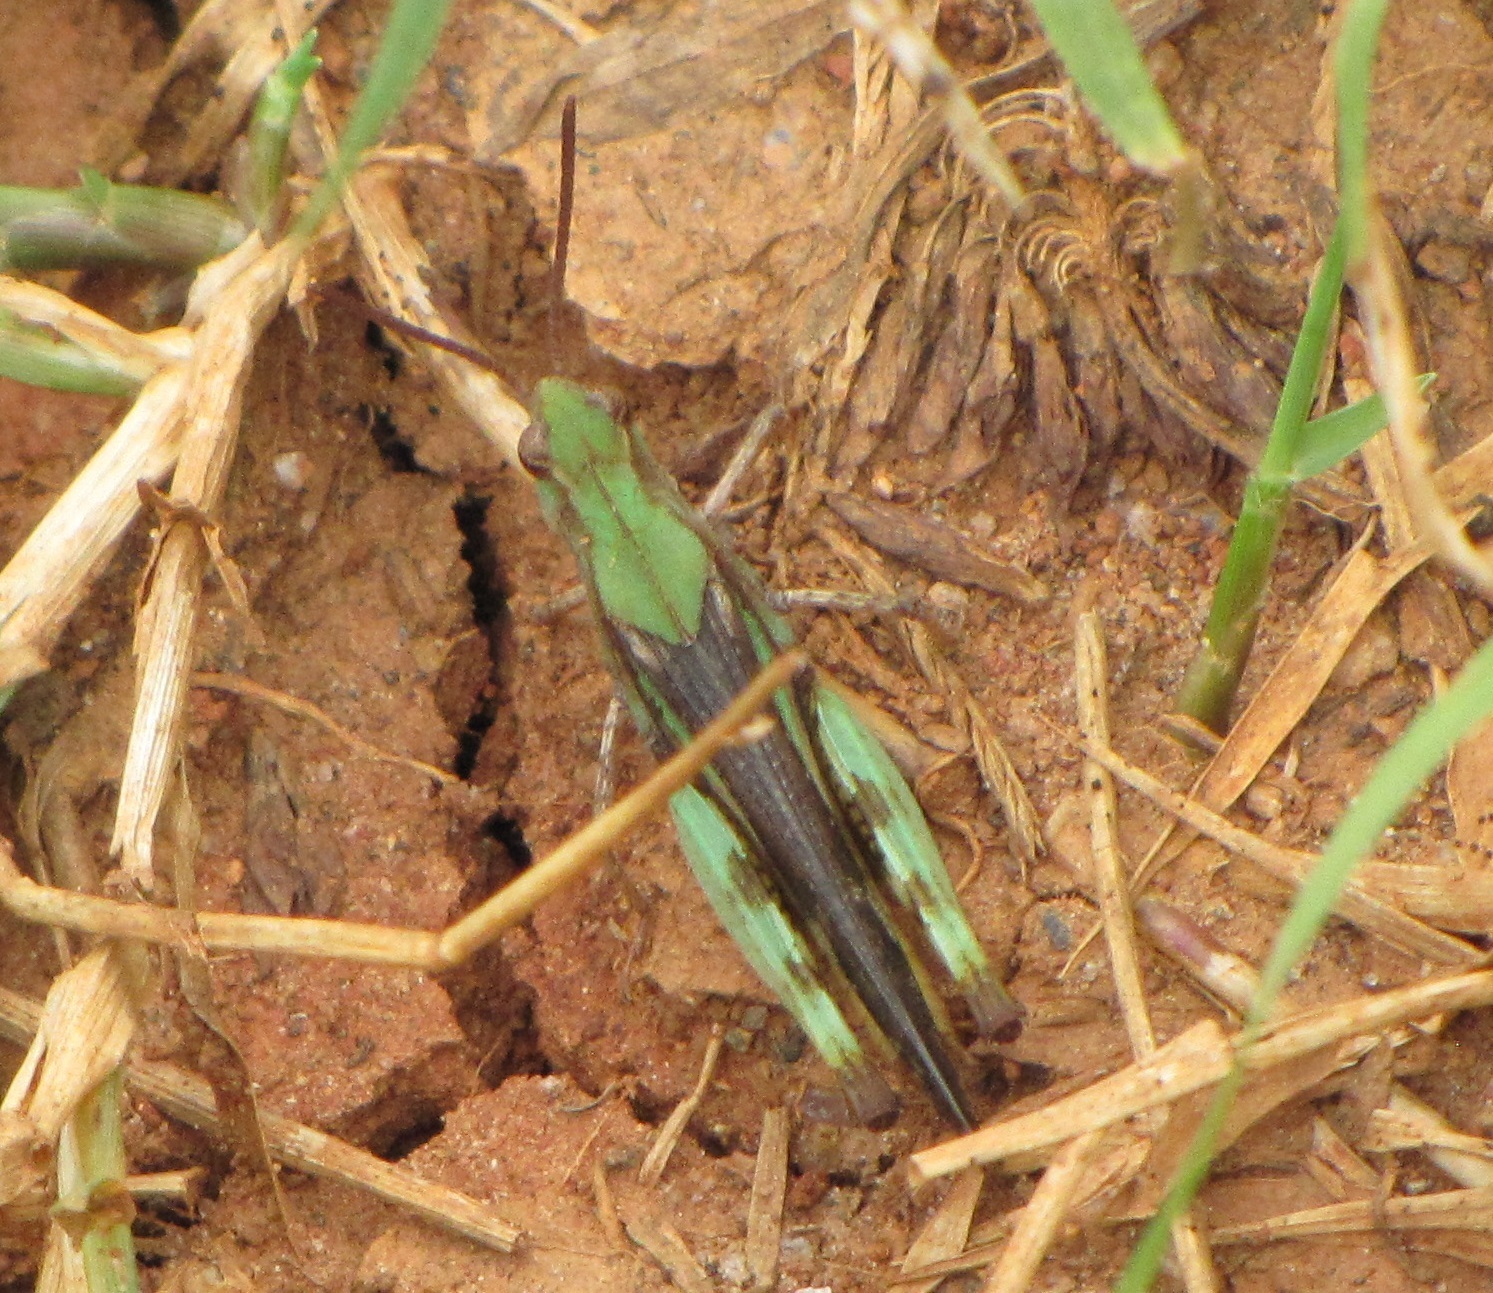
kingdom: Animalia
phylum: Arthropoda
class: Insecta
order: Orthoptera
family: Acrididae
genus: Chortophaga
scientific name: Chortophaga viridifasciata
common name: Green-striped grasshopper
